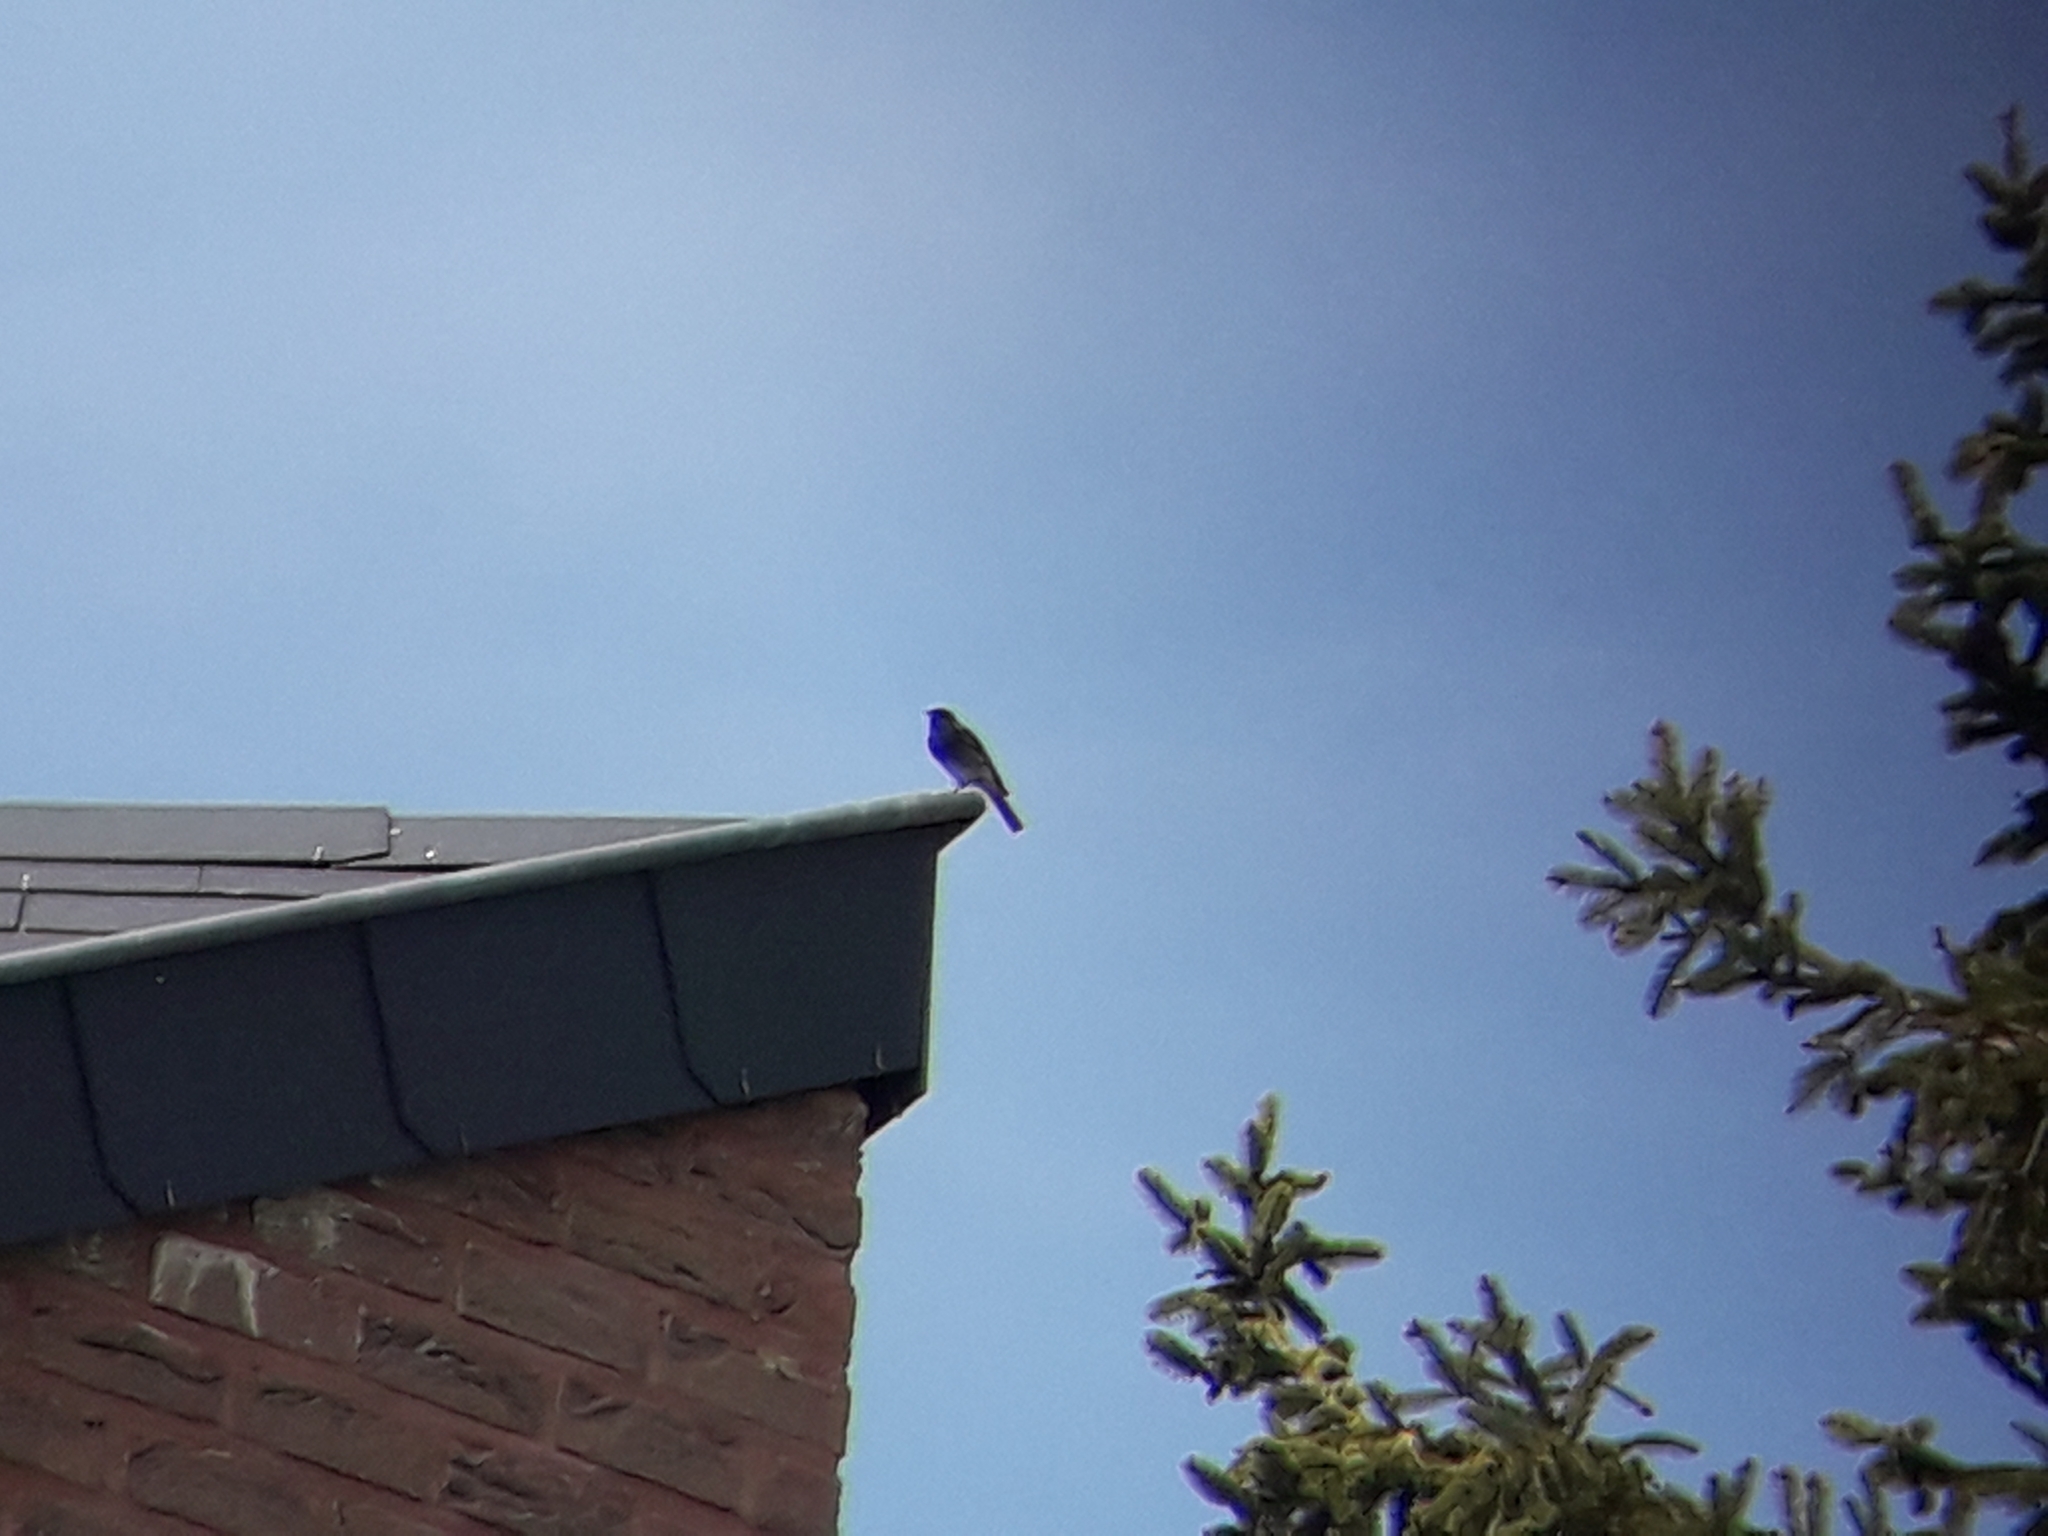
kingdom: Animalia
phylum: Chordata
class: Aves
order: Passeriformes
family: Muscicapidae
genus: Phoenicurus
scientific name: Phoenicurus ochruros
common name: Black redstart
